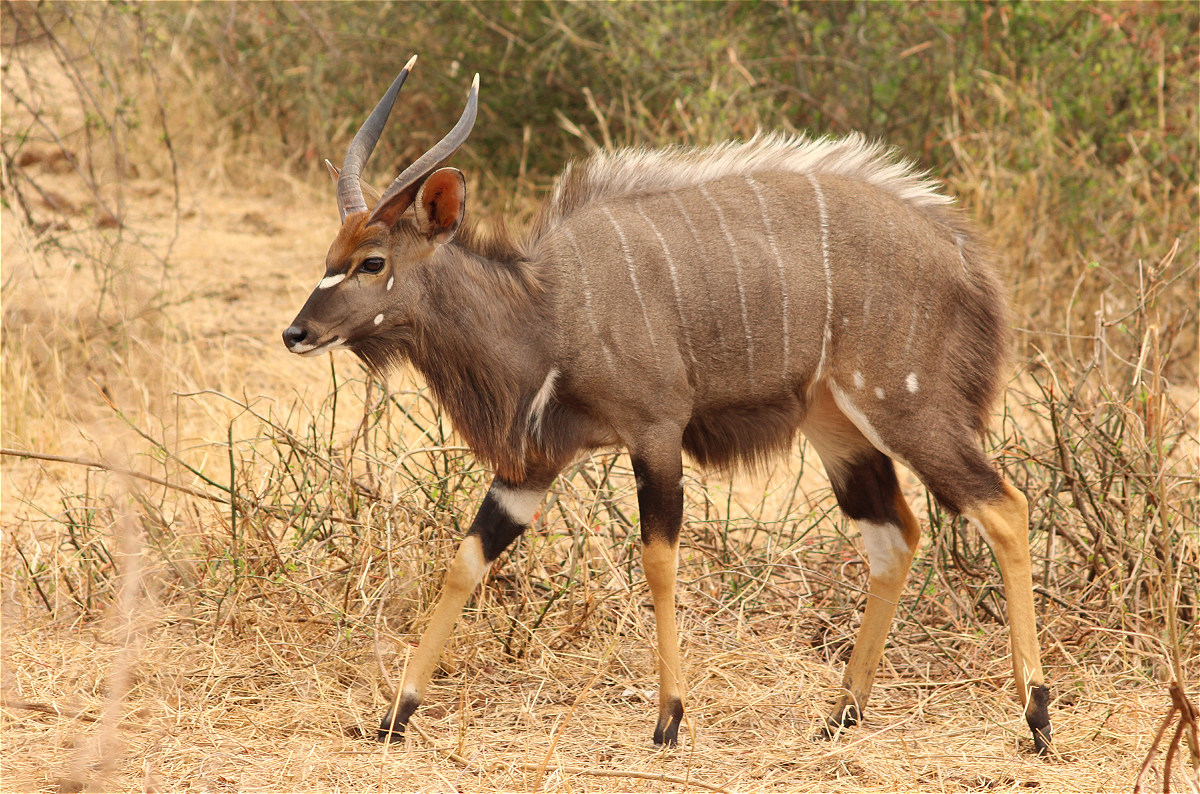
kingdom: Animalia
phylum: Chordata
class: Mammalia
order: Artiodactyla
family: Bovidae
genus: Tragelaphus
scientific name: Tragelaphus angasii
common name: Nyala
